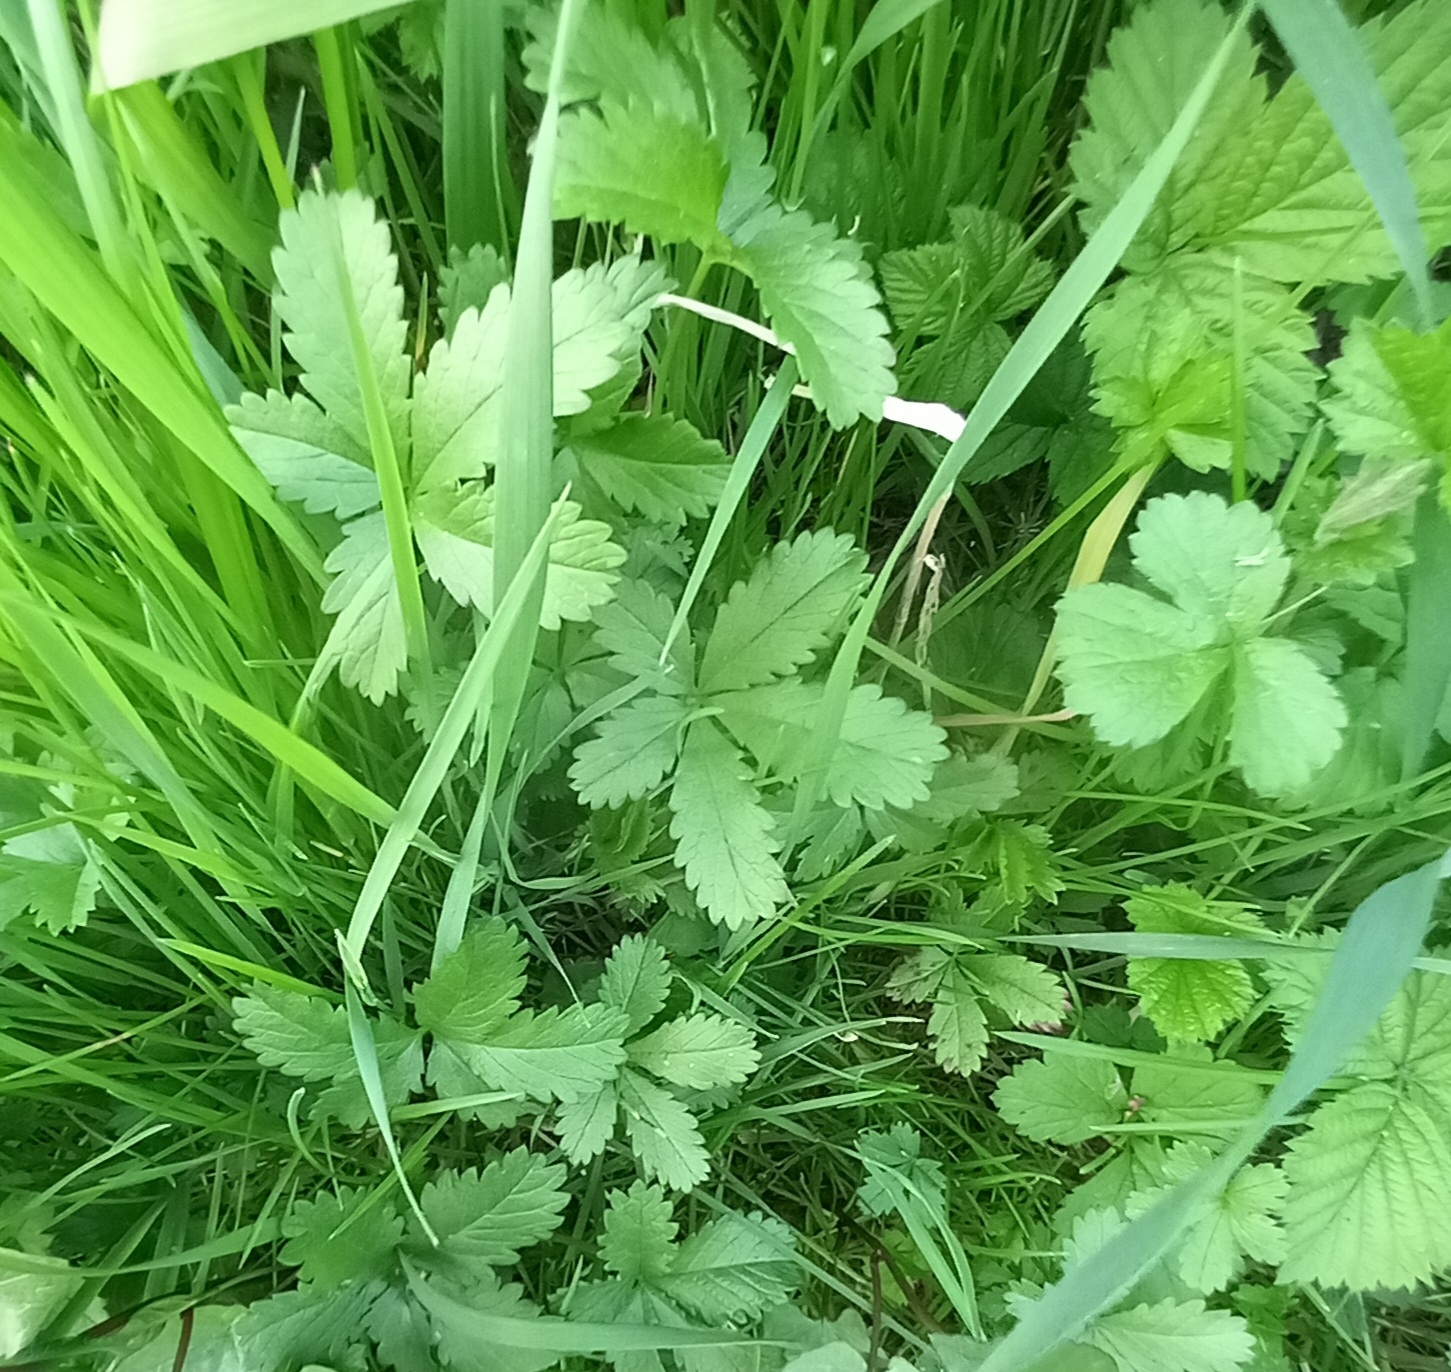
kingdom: Plantae
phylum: Tracheophyta
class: Magnoliopsida
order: Rosales
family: Rosaceae
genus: Potentilla
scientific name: Potentilla reptans
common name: Creeping cinquefoil
